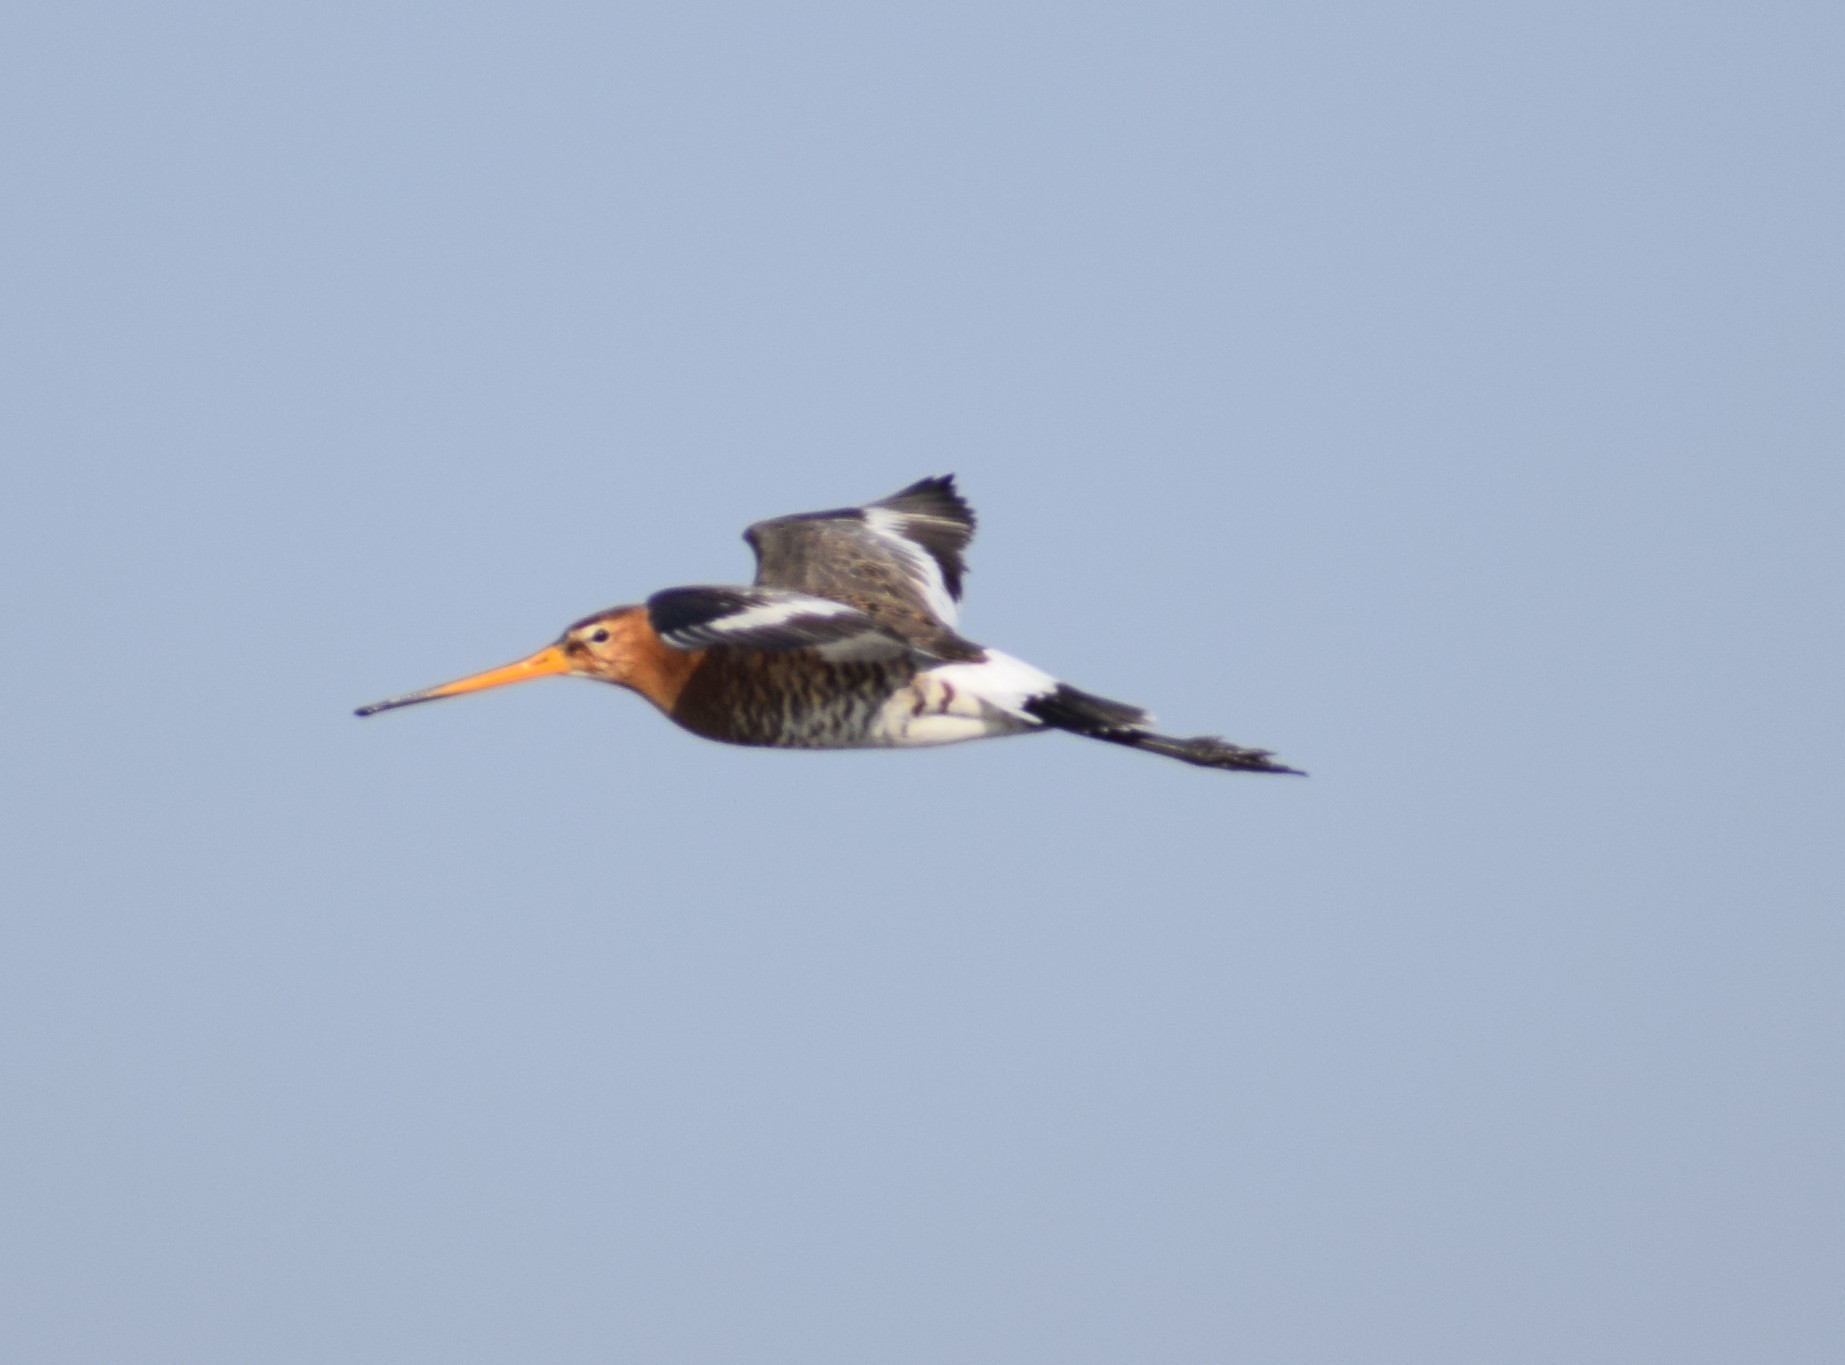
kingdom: Animalia
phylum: Chordata
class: Aves
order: Charadriiformes
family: Scolopacidae
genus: Limosa
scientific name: Limosa limosa
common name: Black-tailed godwit
